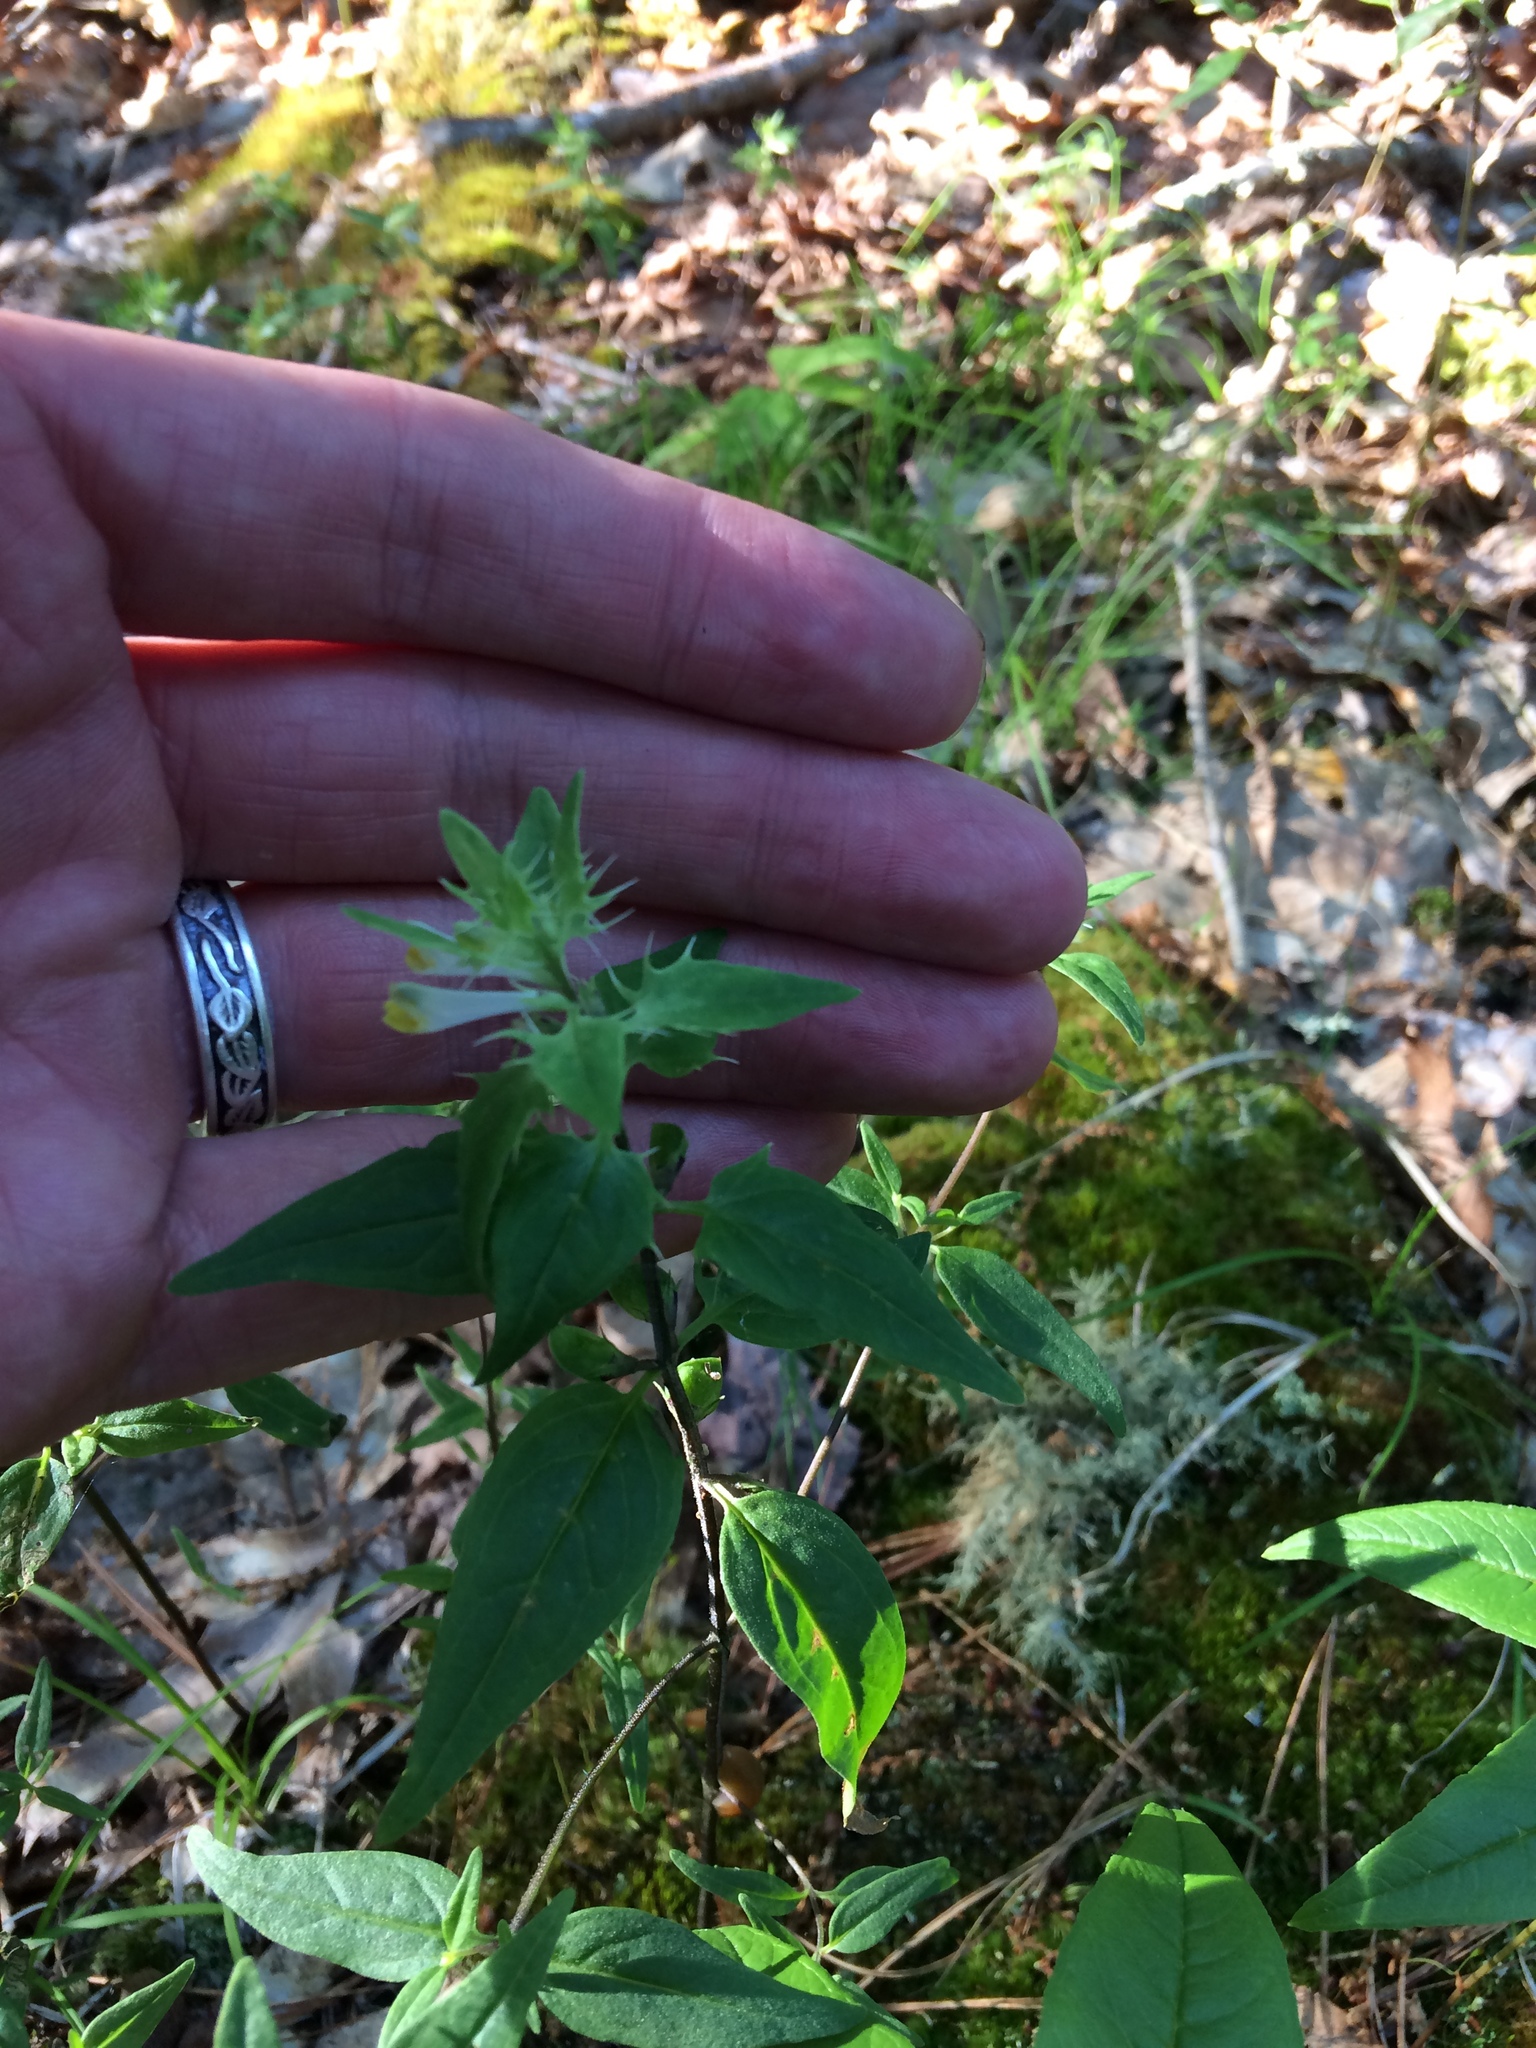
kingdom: Plantae
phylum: Tracheophyta
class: Magnoliopsida
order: Lamiales
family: Orobanchaceae
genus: Melampyrum
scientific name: Melampyrum lineare
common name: American cow-wheat
